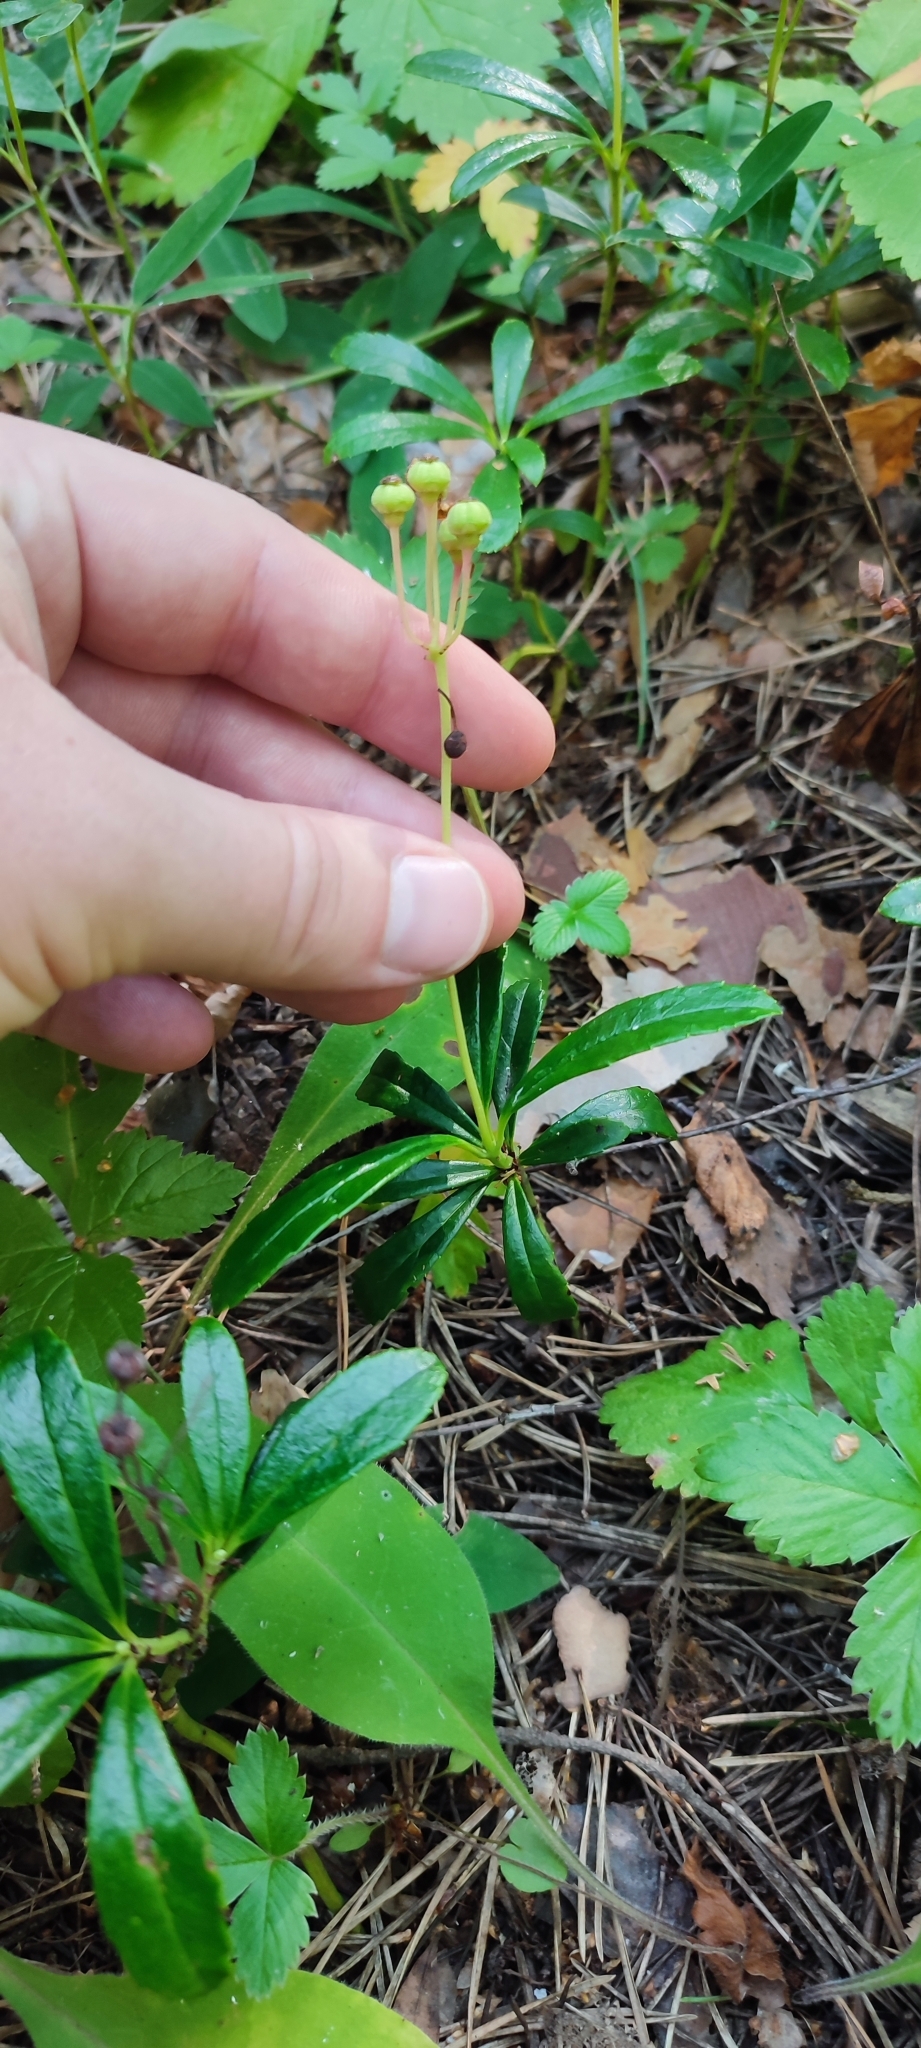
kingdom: Plantae
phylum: Tracheophyta
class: Magnoliopsida
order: Ericales
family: Ericaceae
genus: Chimaphila
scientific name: Chimaphila umbellata
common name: Pipsissewa
